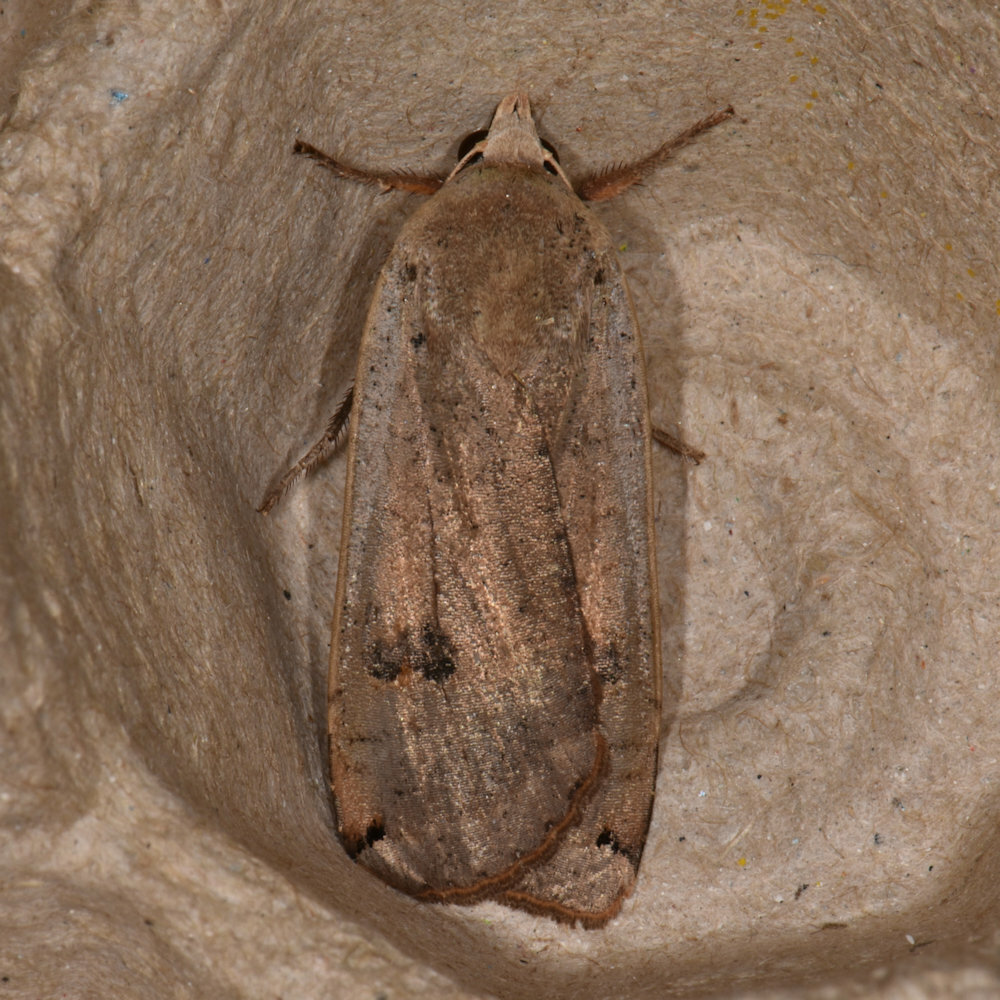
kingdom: Animalia
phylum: Arthropoda
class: Insecta
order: Lepidoptera
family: Noctuidae
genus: Noctua
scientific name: Noctua pronuba
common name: Large yellow underwing
